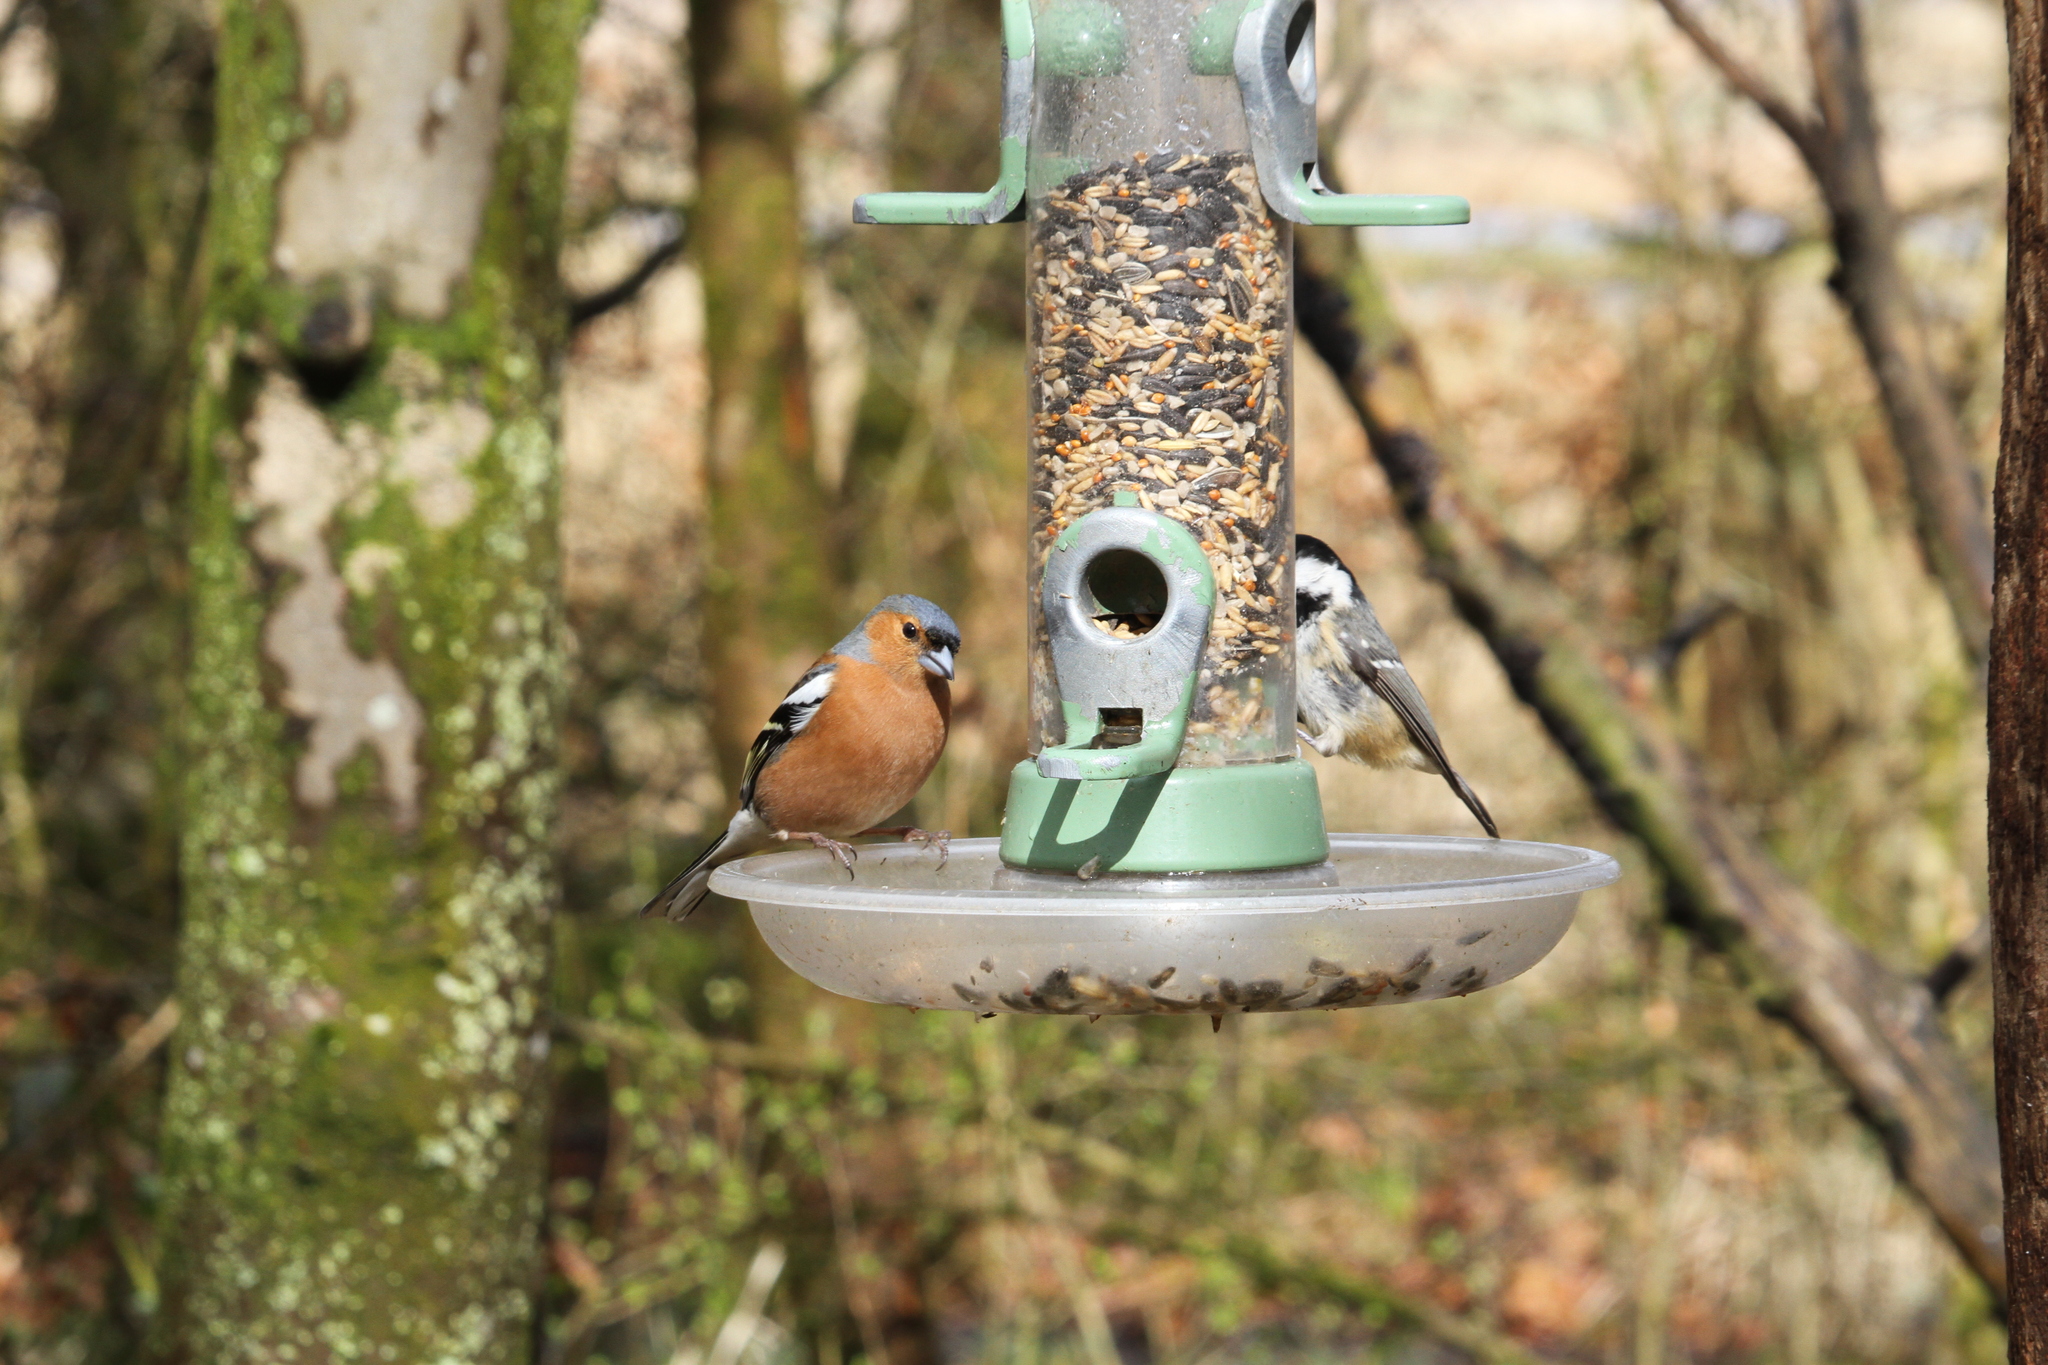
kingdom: Animalia
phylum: Chordata
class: Aves
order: Passeriformes
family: Paridae
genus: Periparus
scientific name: Periparus ater
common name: Coal tit
